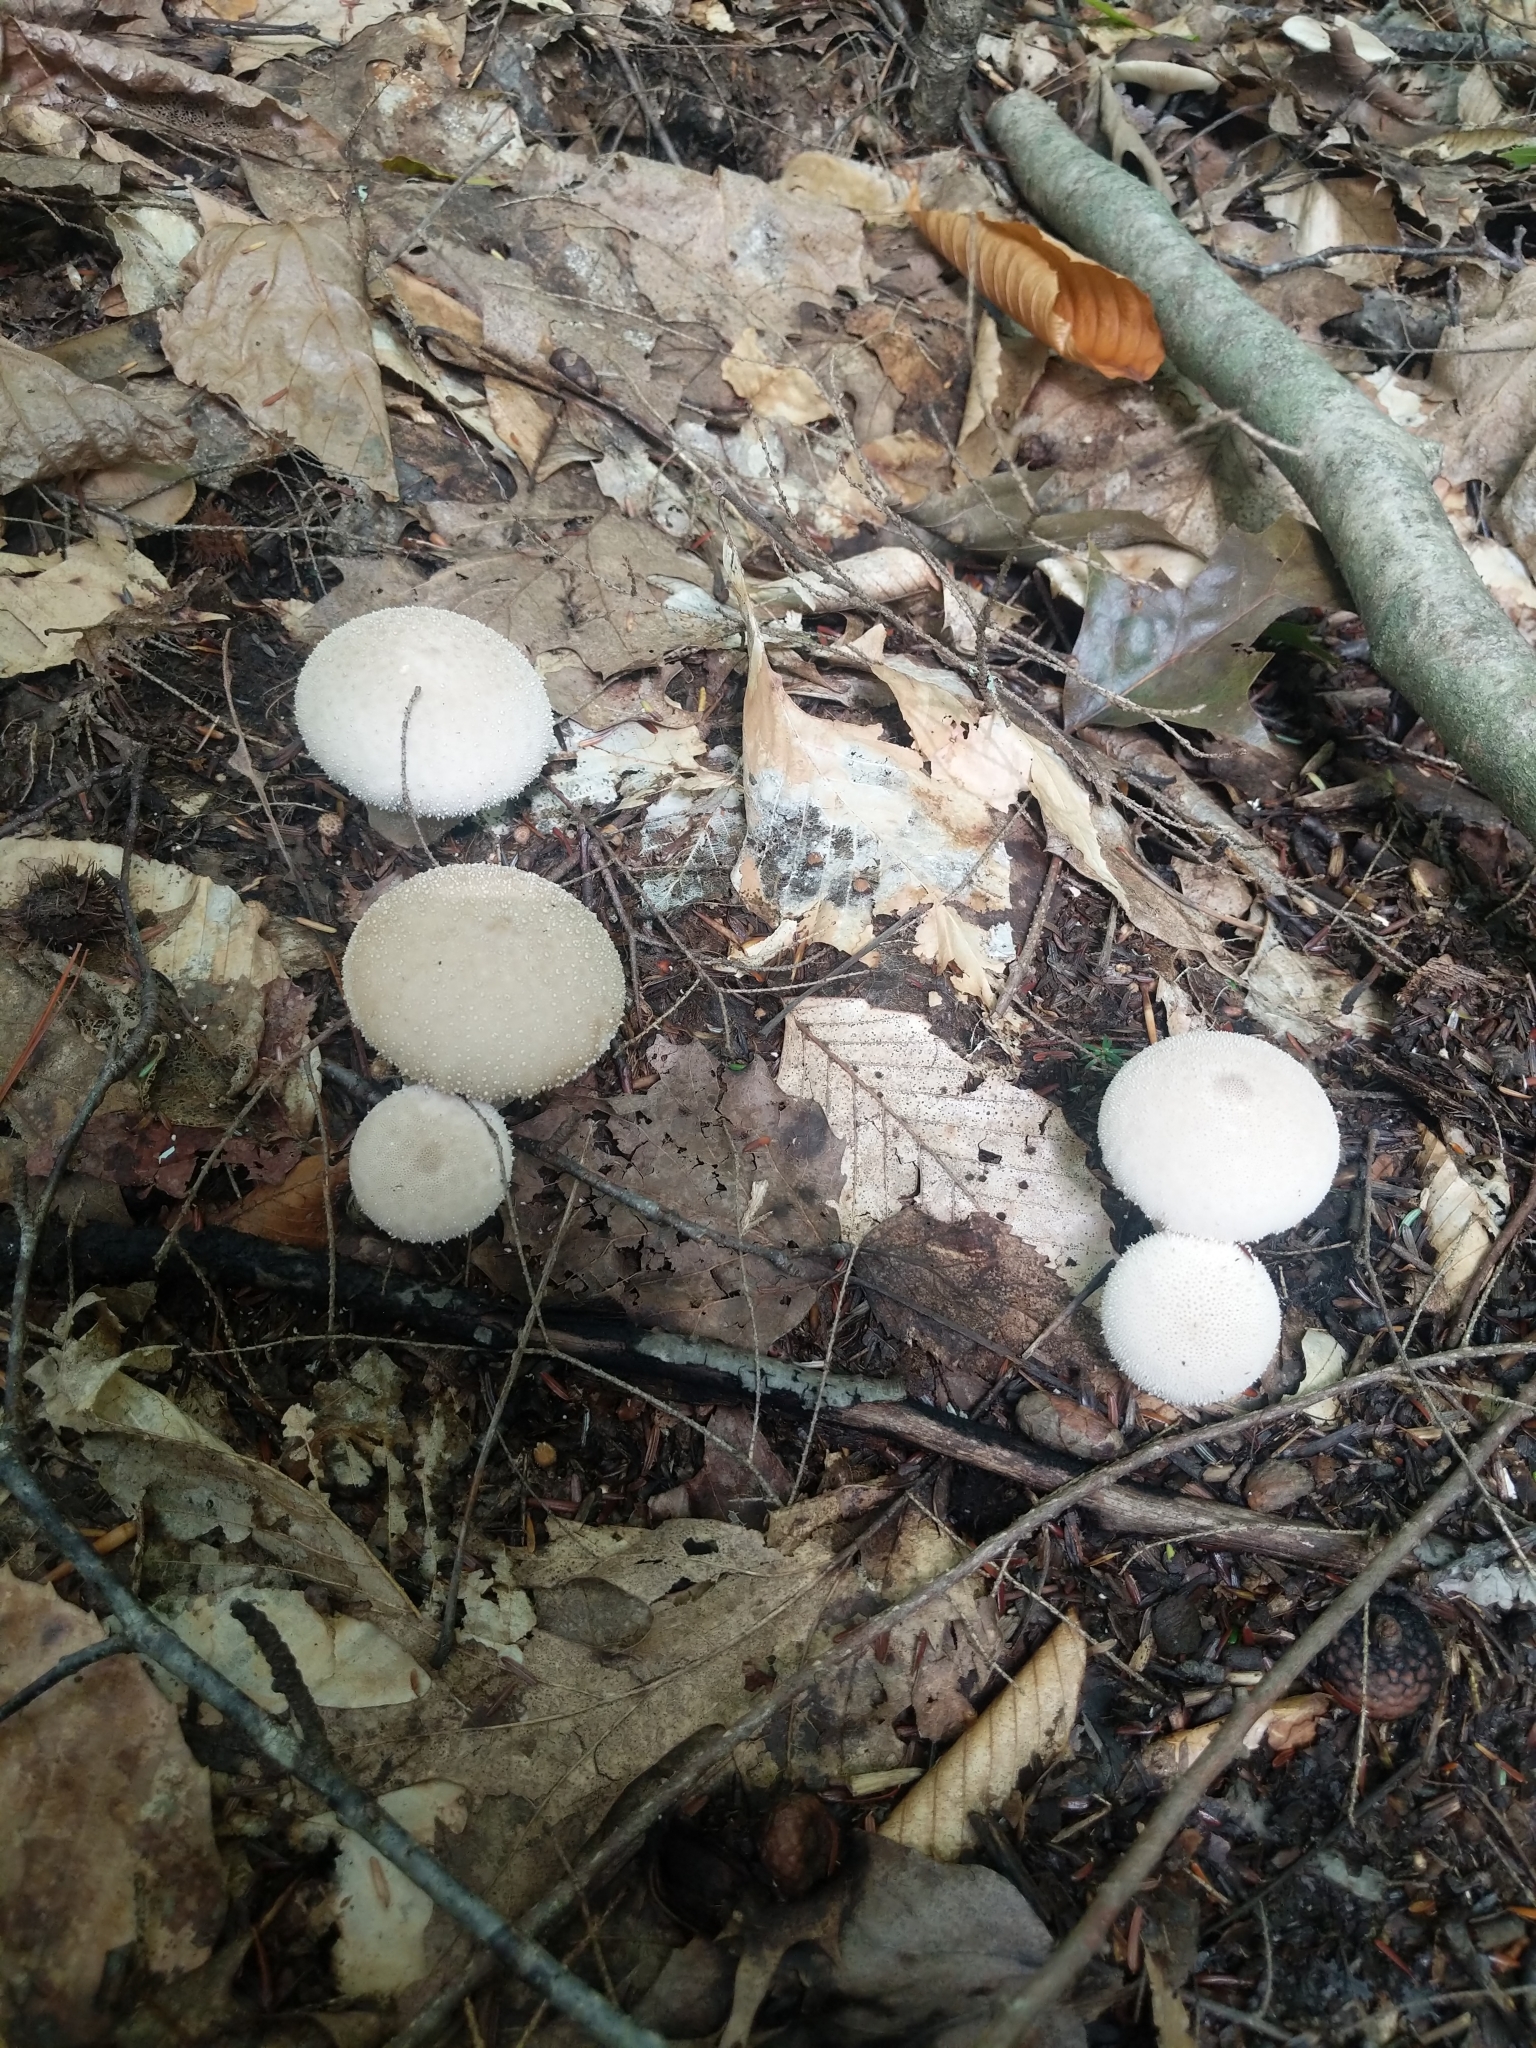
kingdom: Fungi
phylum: Basidiomycota
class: Agaricomycetes
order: Agaricales
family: Lycoperdaceae
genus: Lycoperdon
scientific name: Lycoperdon perlatum
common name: Common puffball
